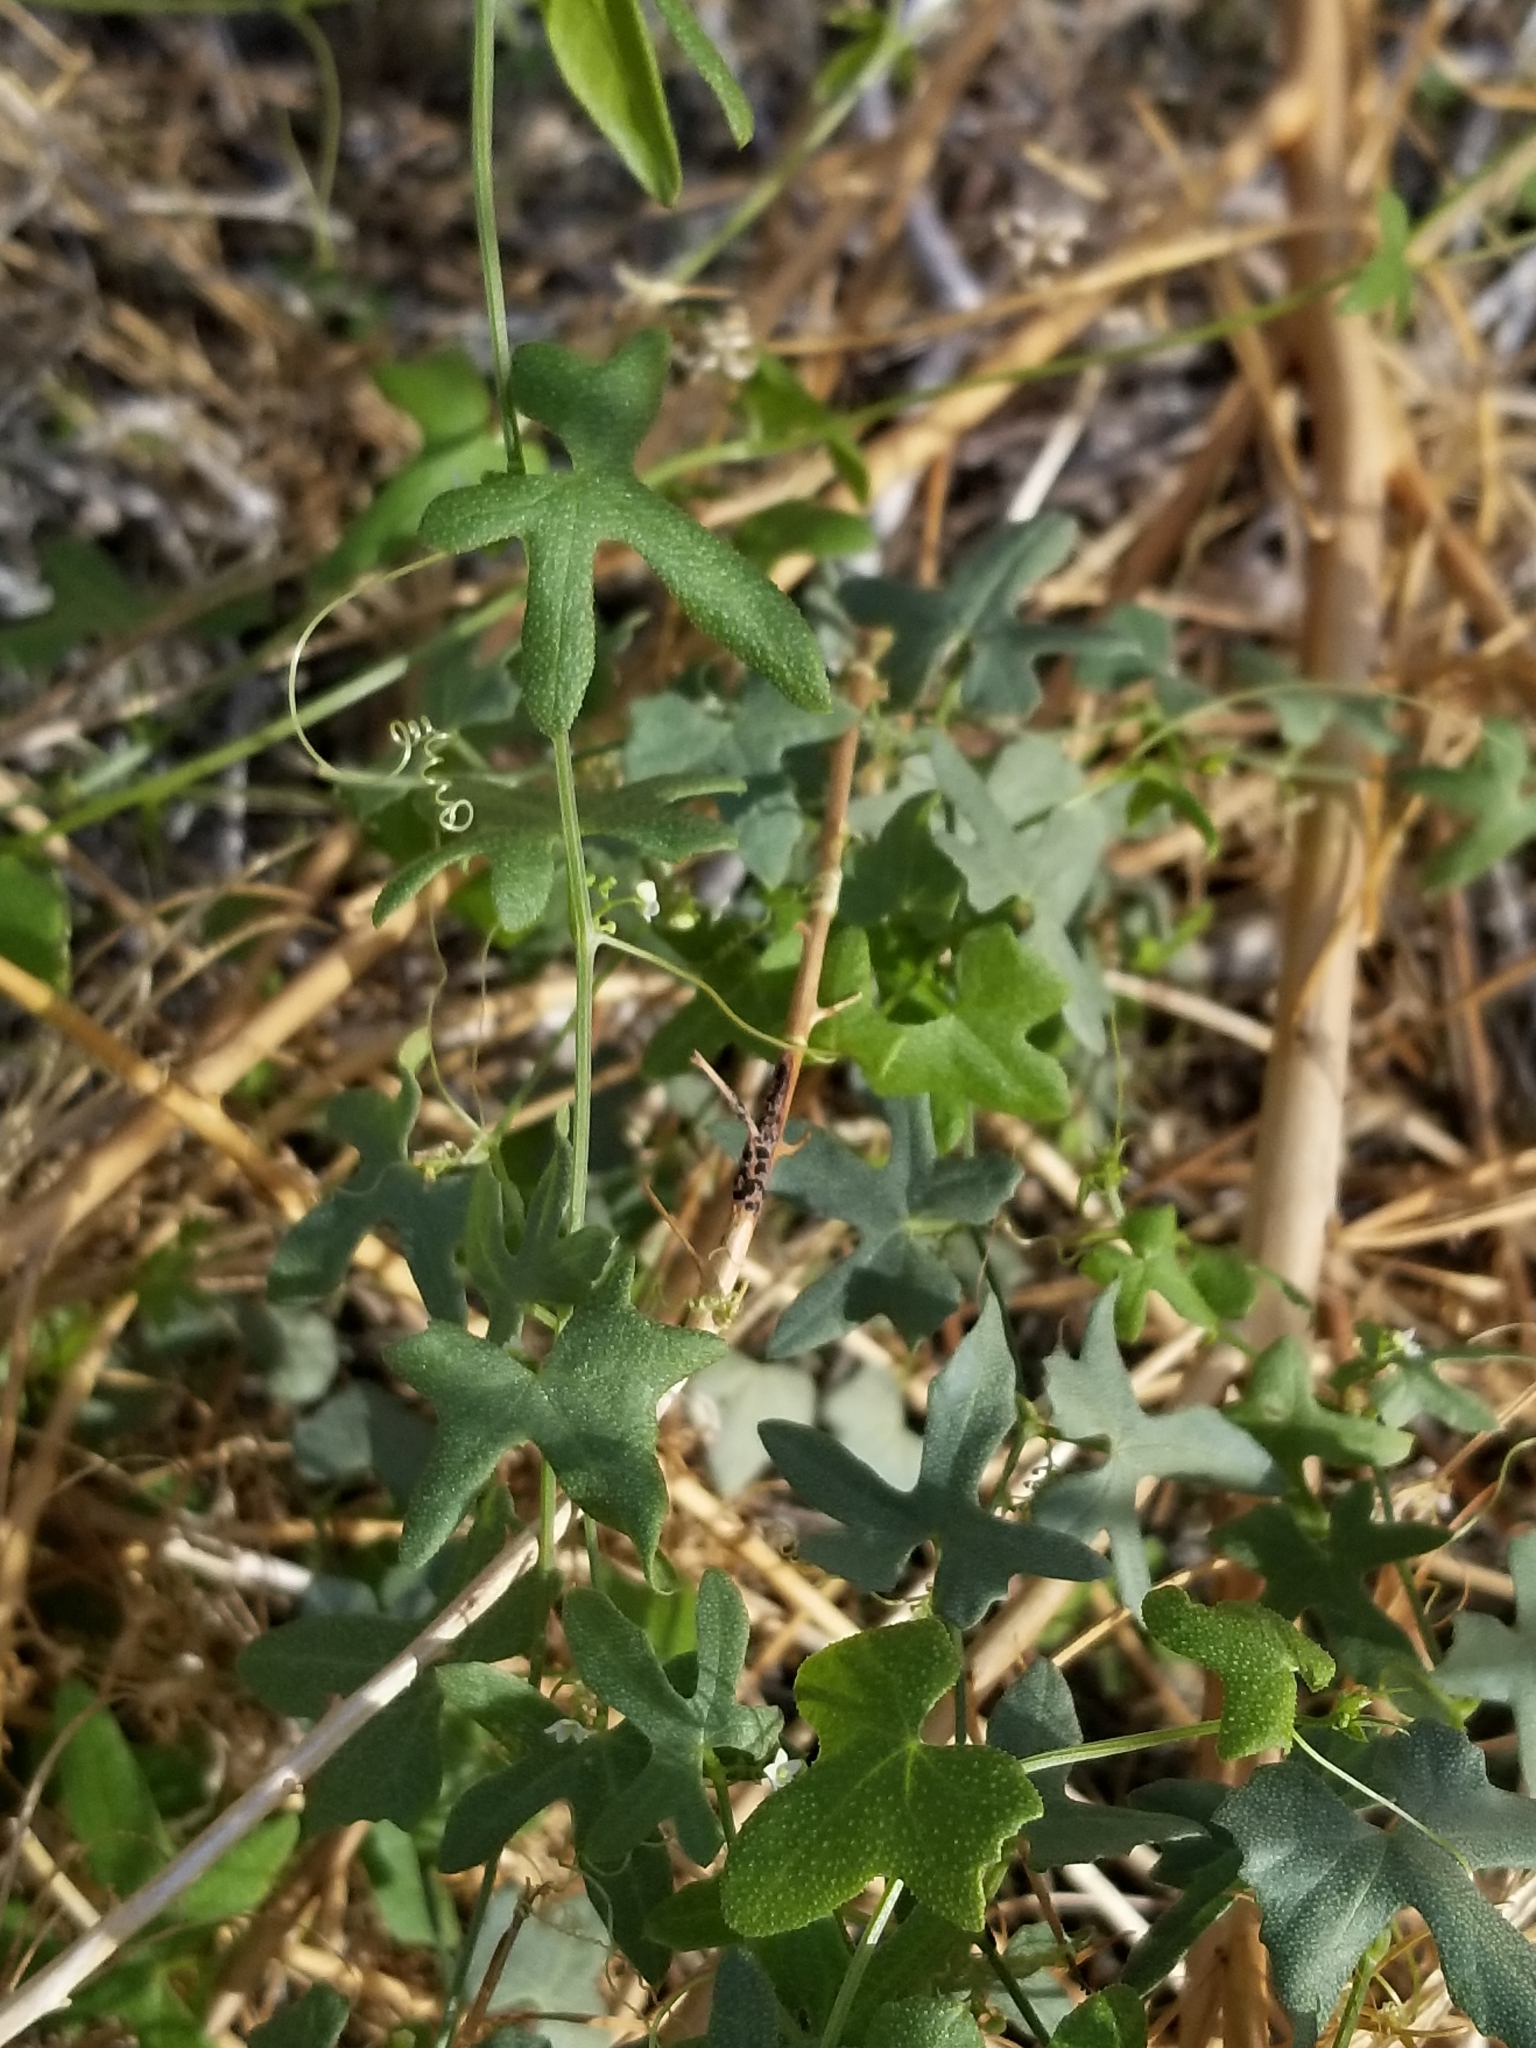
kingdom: Plantae
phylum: Tracheophyta
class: Magnoliopsida
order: Cucurbitales
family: Cucurbitaceae
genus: Echinopepon
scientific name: Echinopepon bigelovii
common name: Desert starvine
